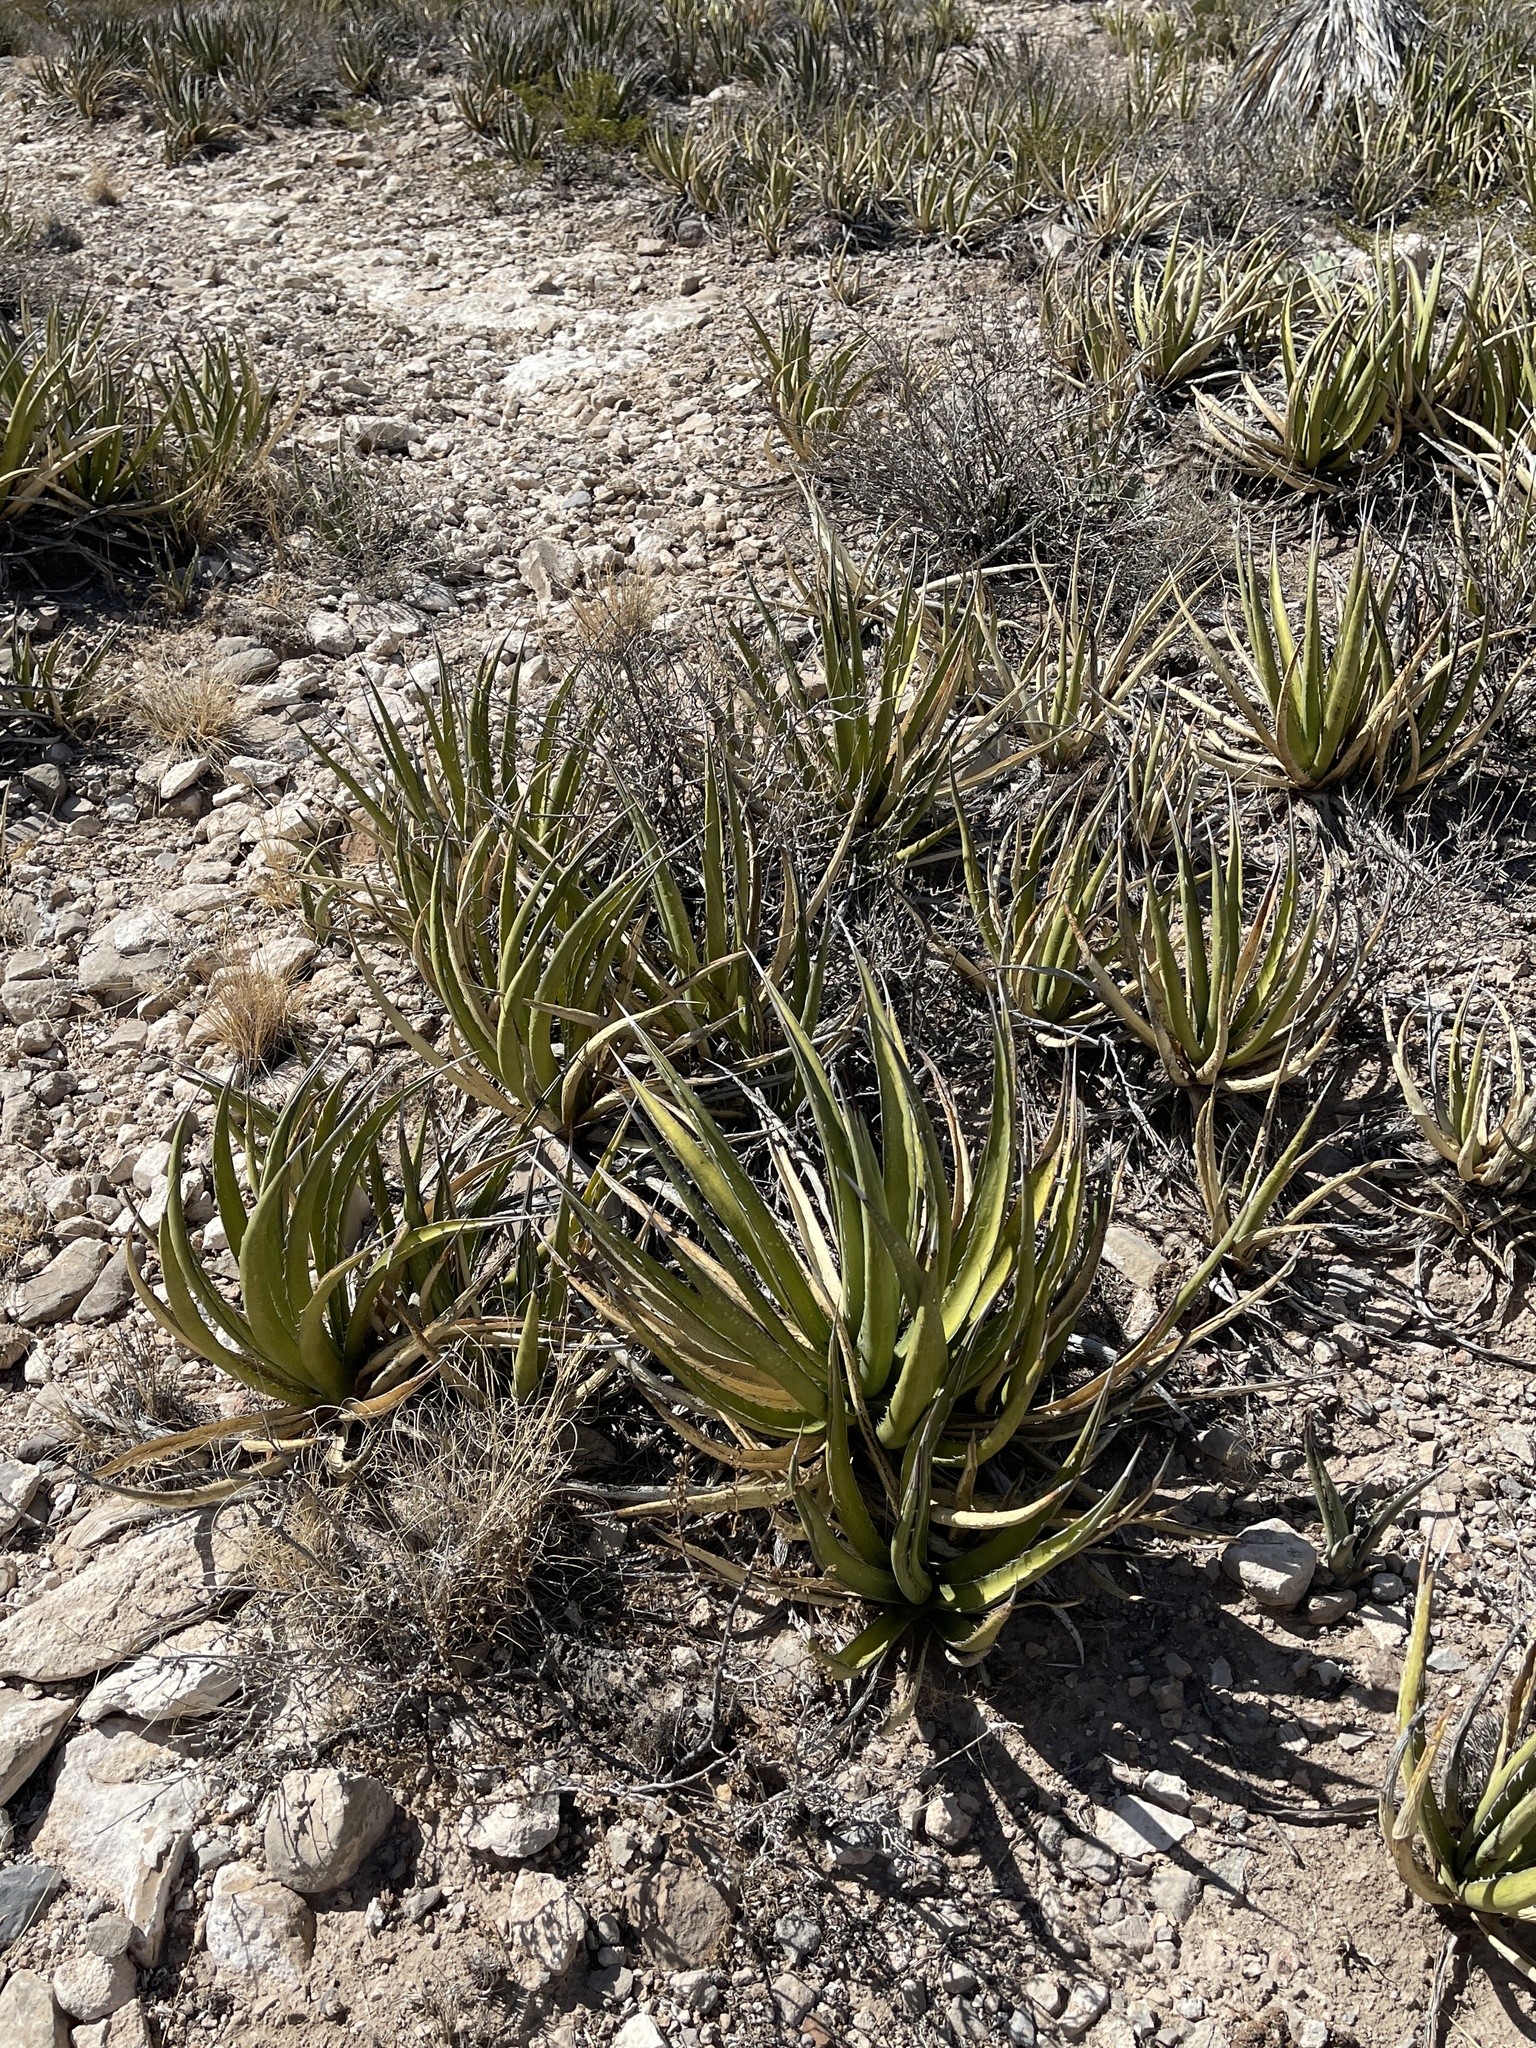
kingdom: Plantae
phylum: Tracheophyta
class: Liliopsida
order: Asparagales
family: Asparagaceae
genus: Agave
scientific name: Agave lechuguilla
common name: Lecheguilla agave
